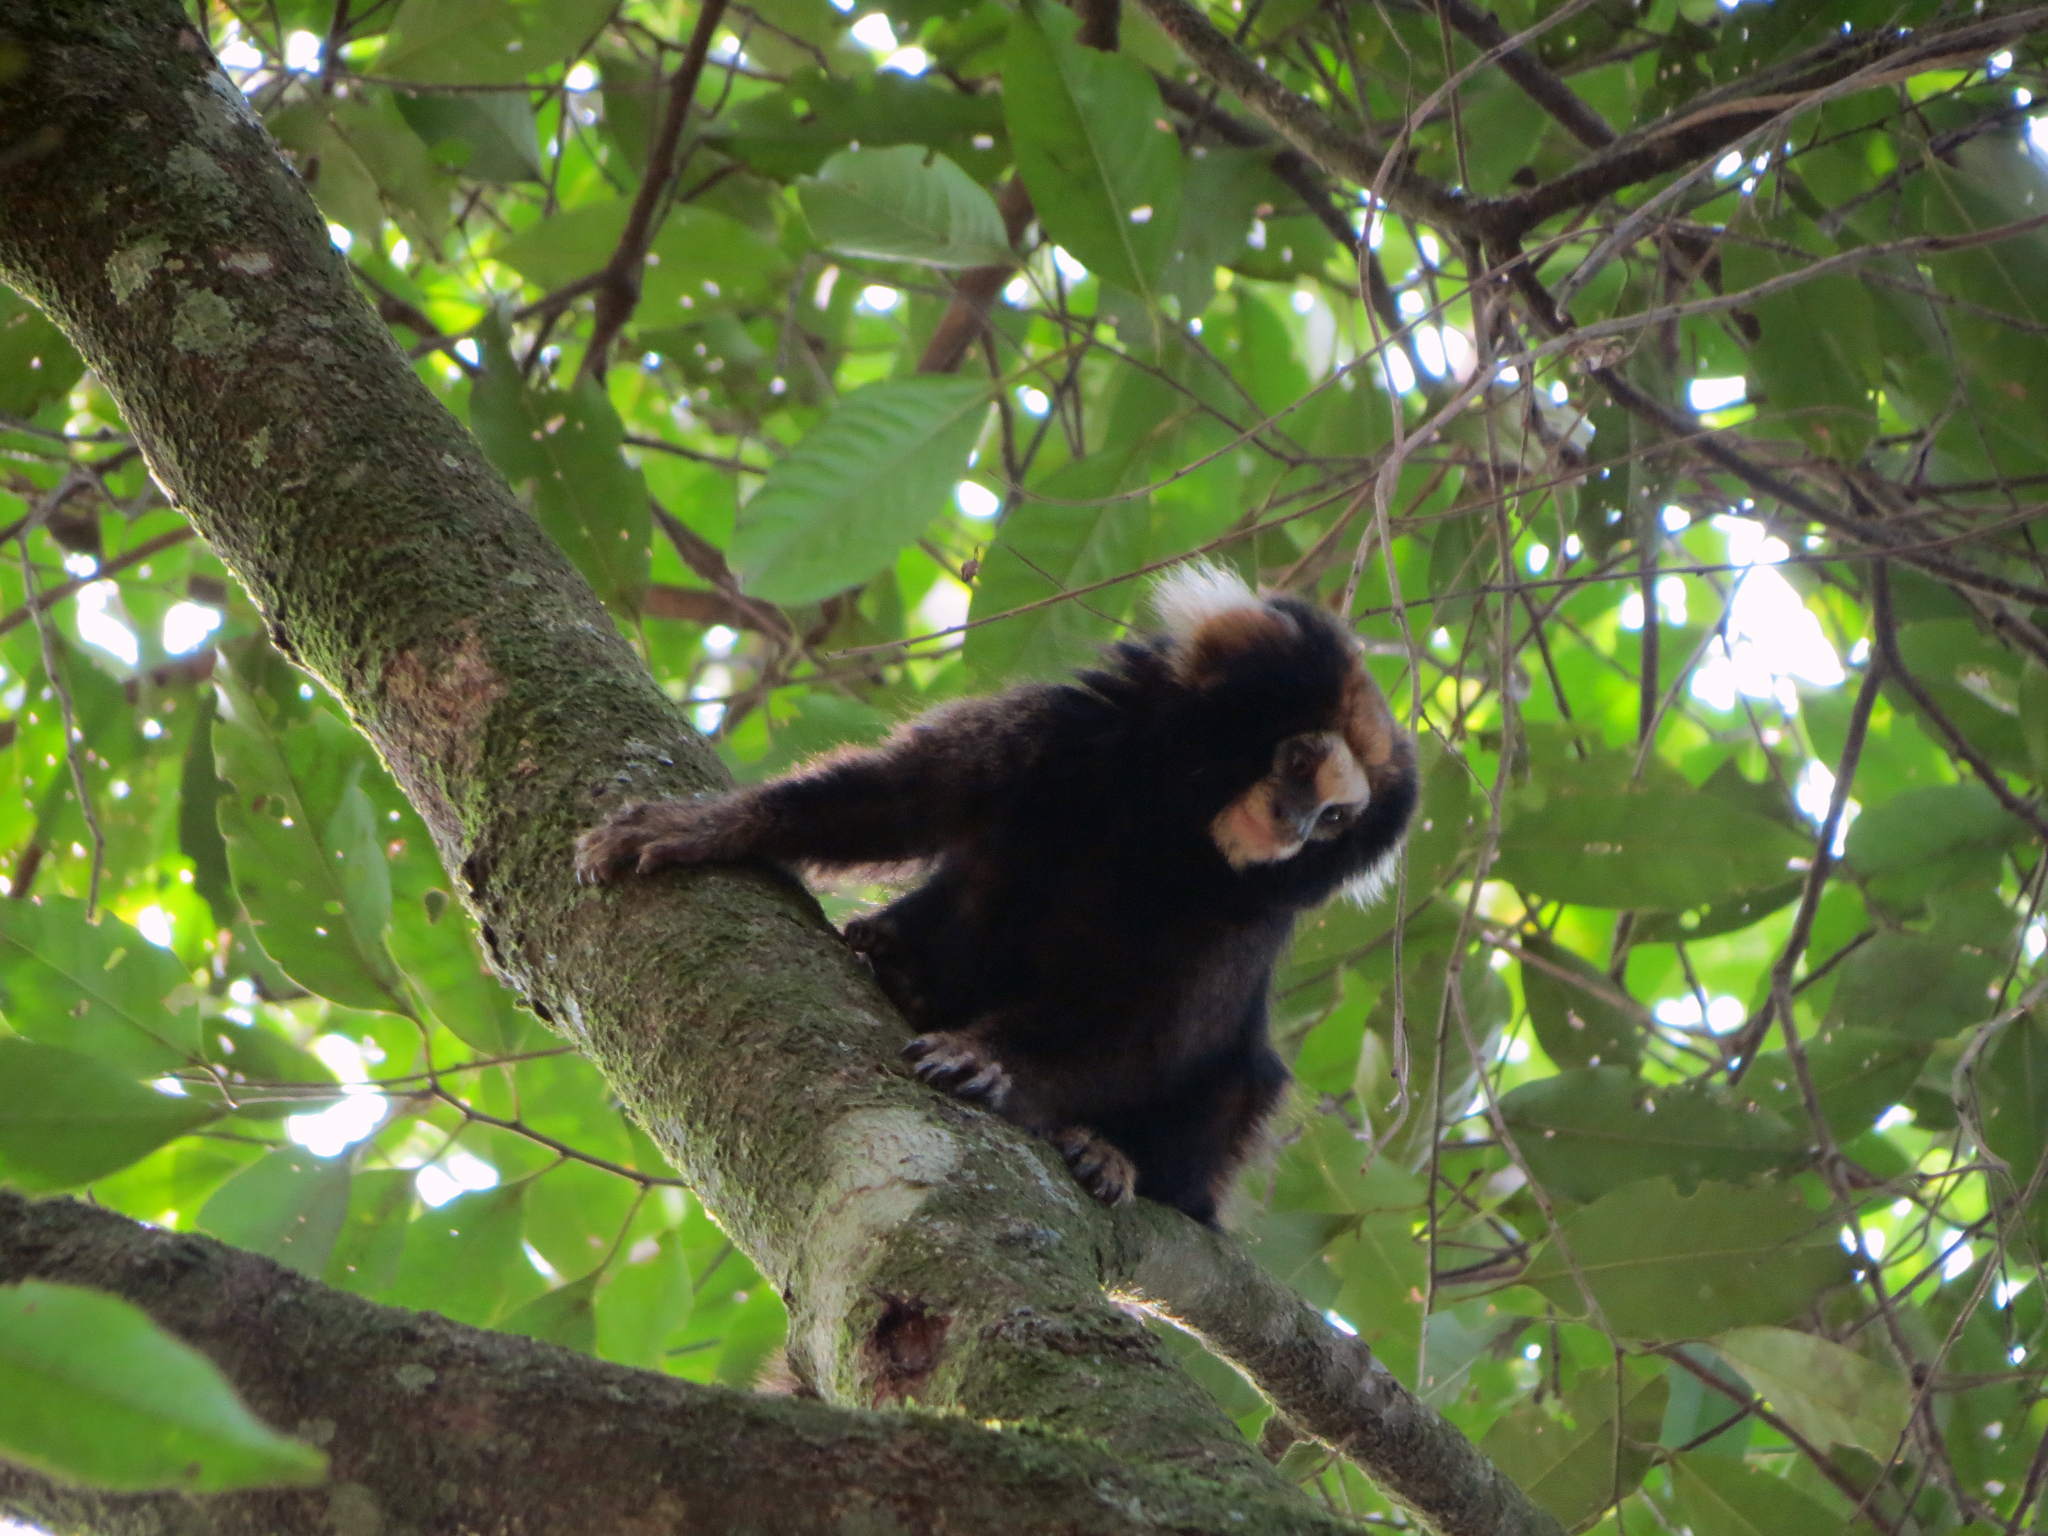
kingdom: Animalia
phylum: Chordata
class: Mammalia
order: Primates
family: Callitrichidae
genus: Callithrix
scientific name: Callithrix aurita
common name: Buffy-tufted marmoset
